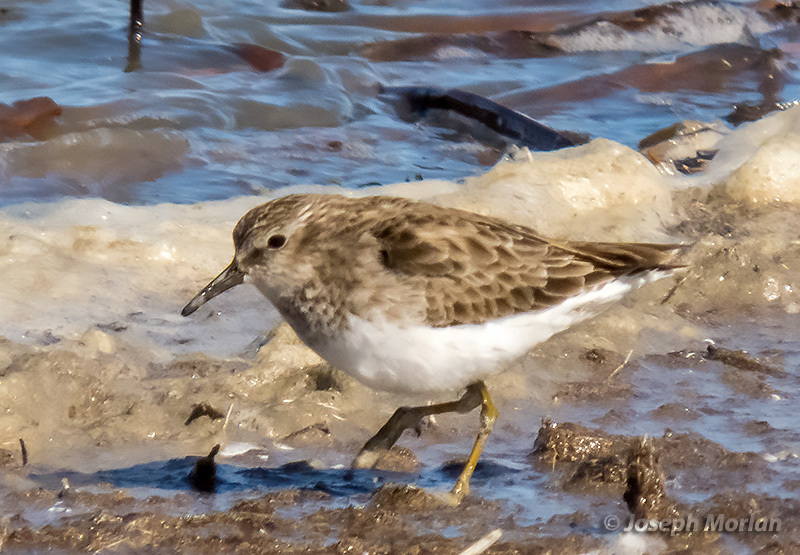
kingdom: Animalia
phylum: Chordata
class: Aves
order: Charadriiformes
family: Scolopacidae
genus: Calidris
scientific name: Calidris minutilla
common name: Least sandpiper
